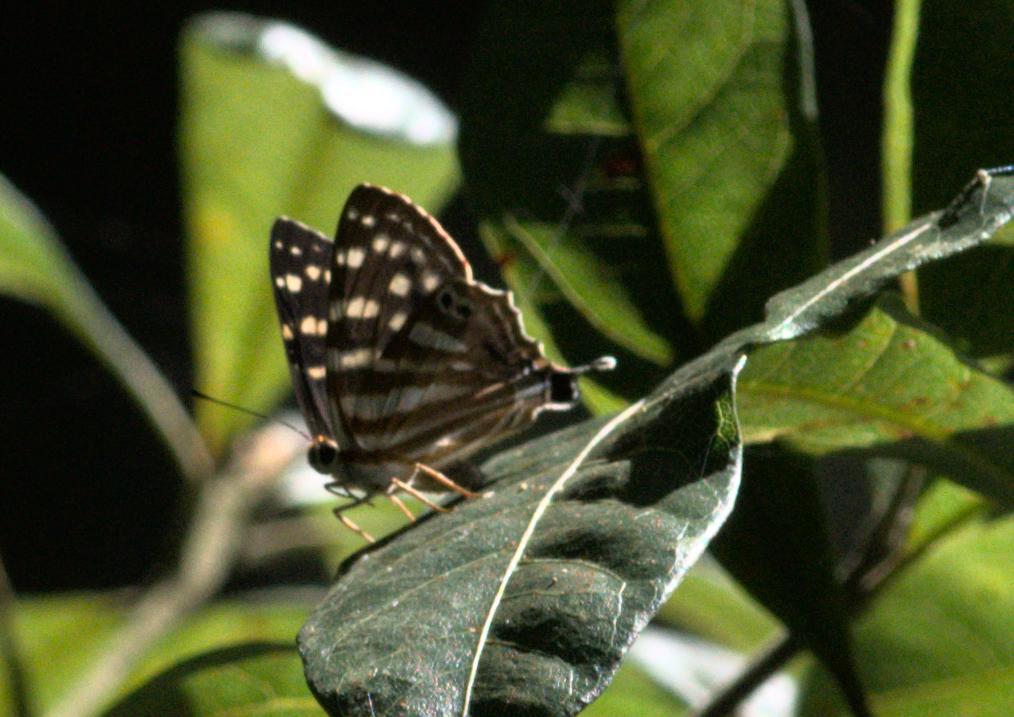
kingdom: Animalia
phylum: Arthropoda
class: Insecta
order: Lepidoptera
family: Lycaenidae
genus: Dodona
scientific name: Dodona eugenes
